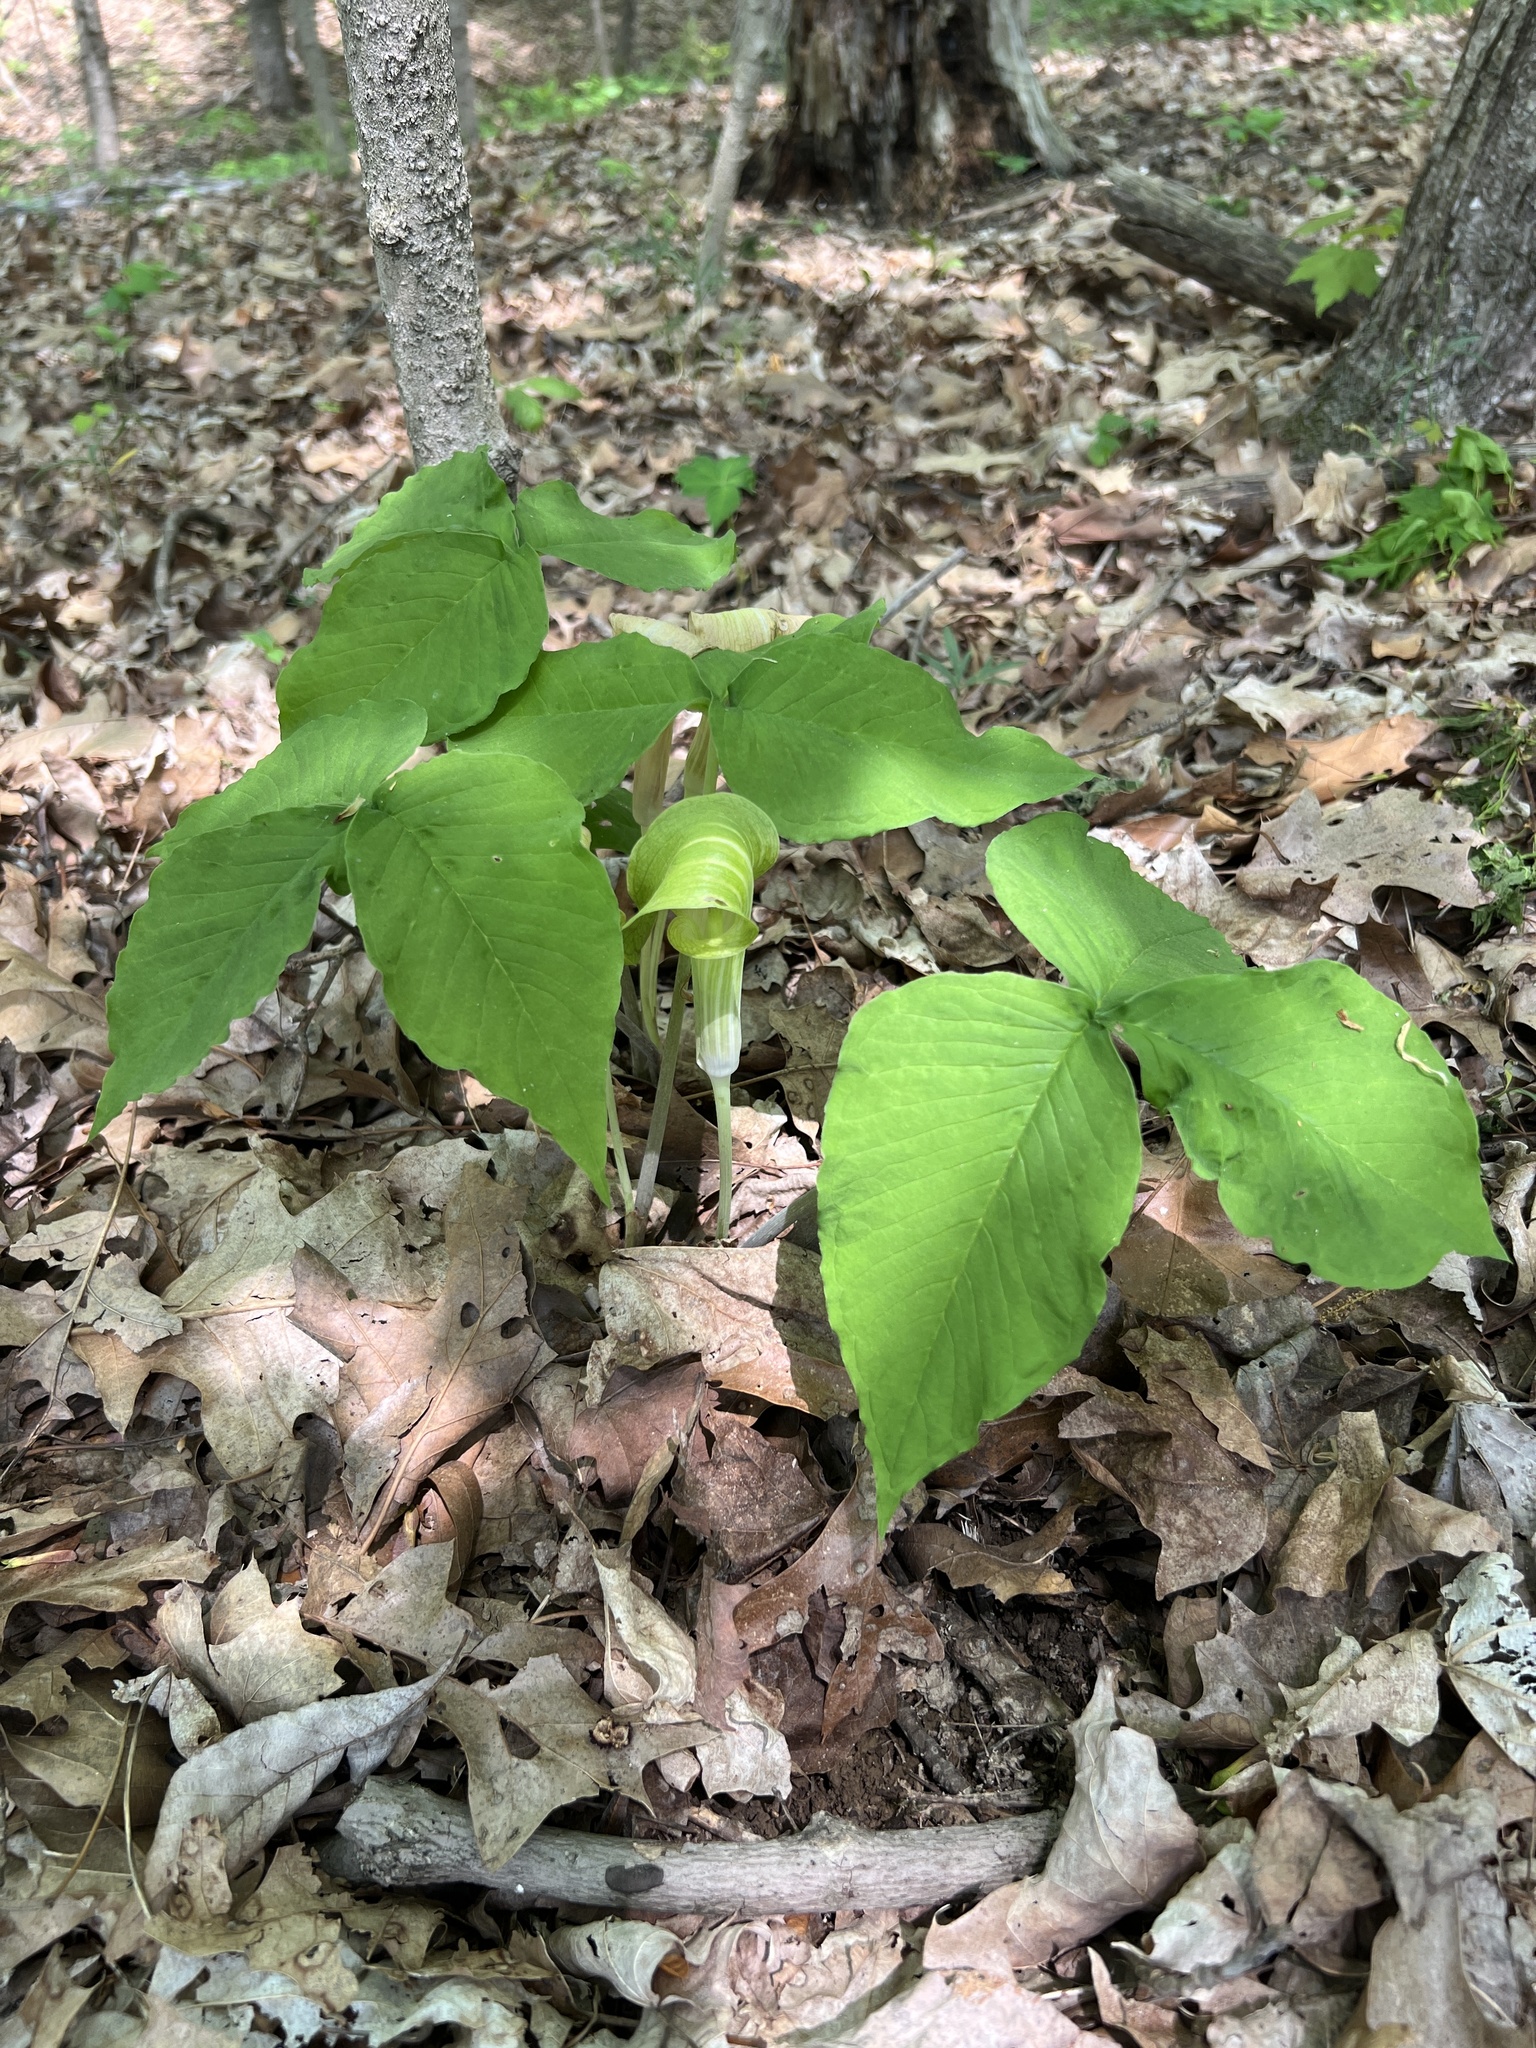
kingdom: Plantae
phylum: Tracheophyta
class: Liliopsida
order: Alismatales
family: Araceae
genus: Arisaema
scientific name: Arisaema triphyllum
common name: Jack-in-the-pulpit
